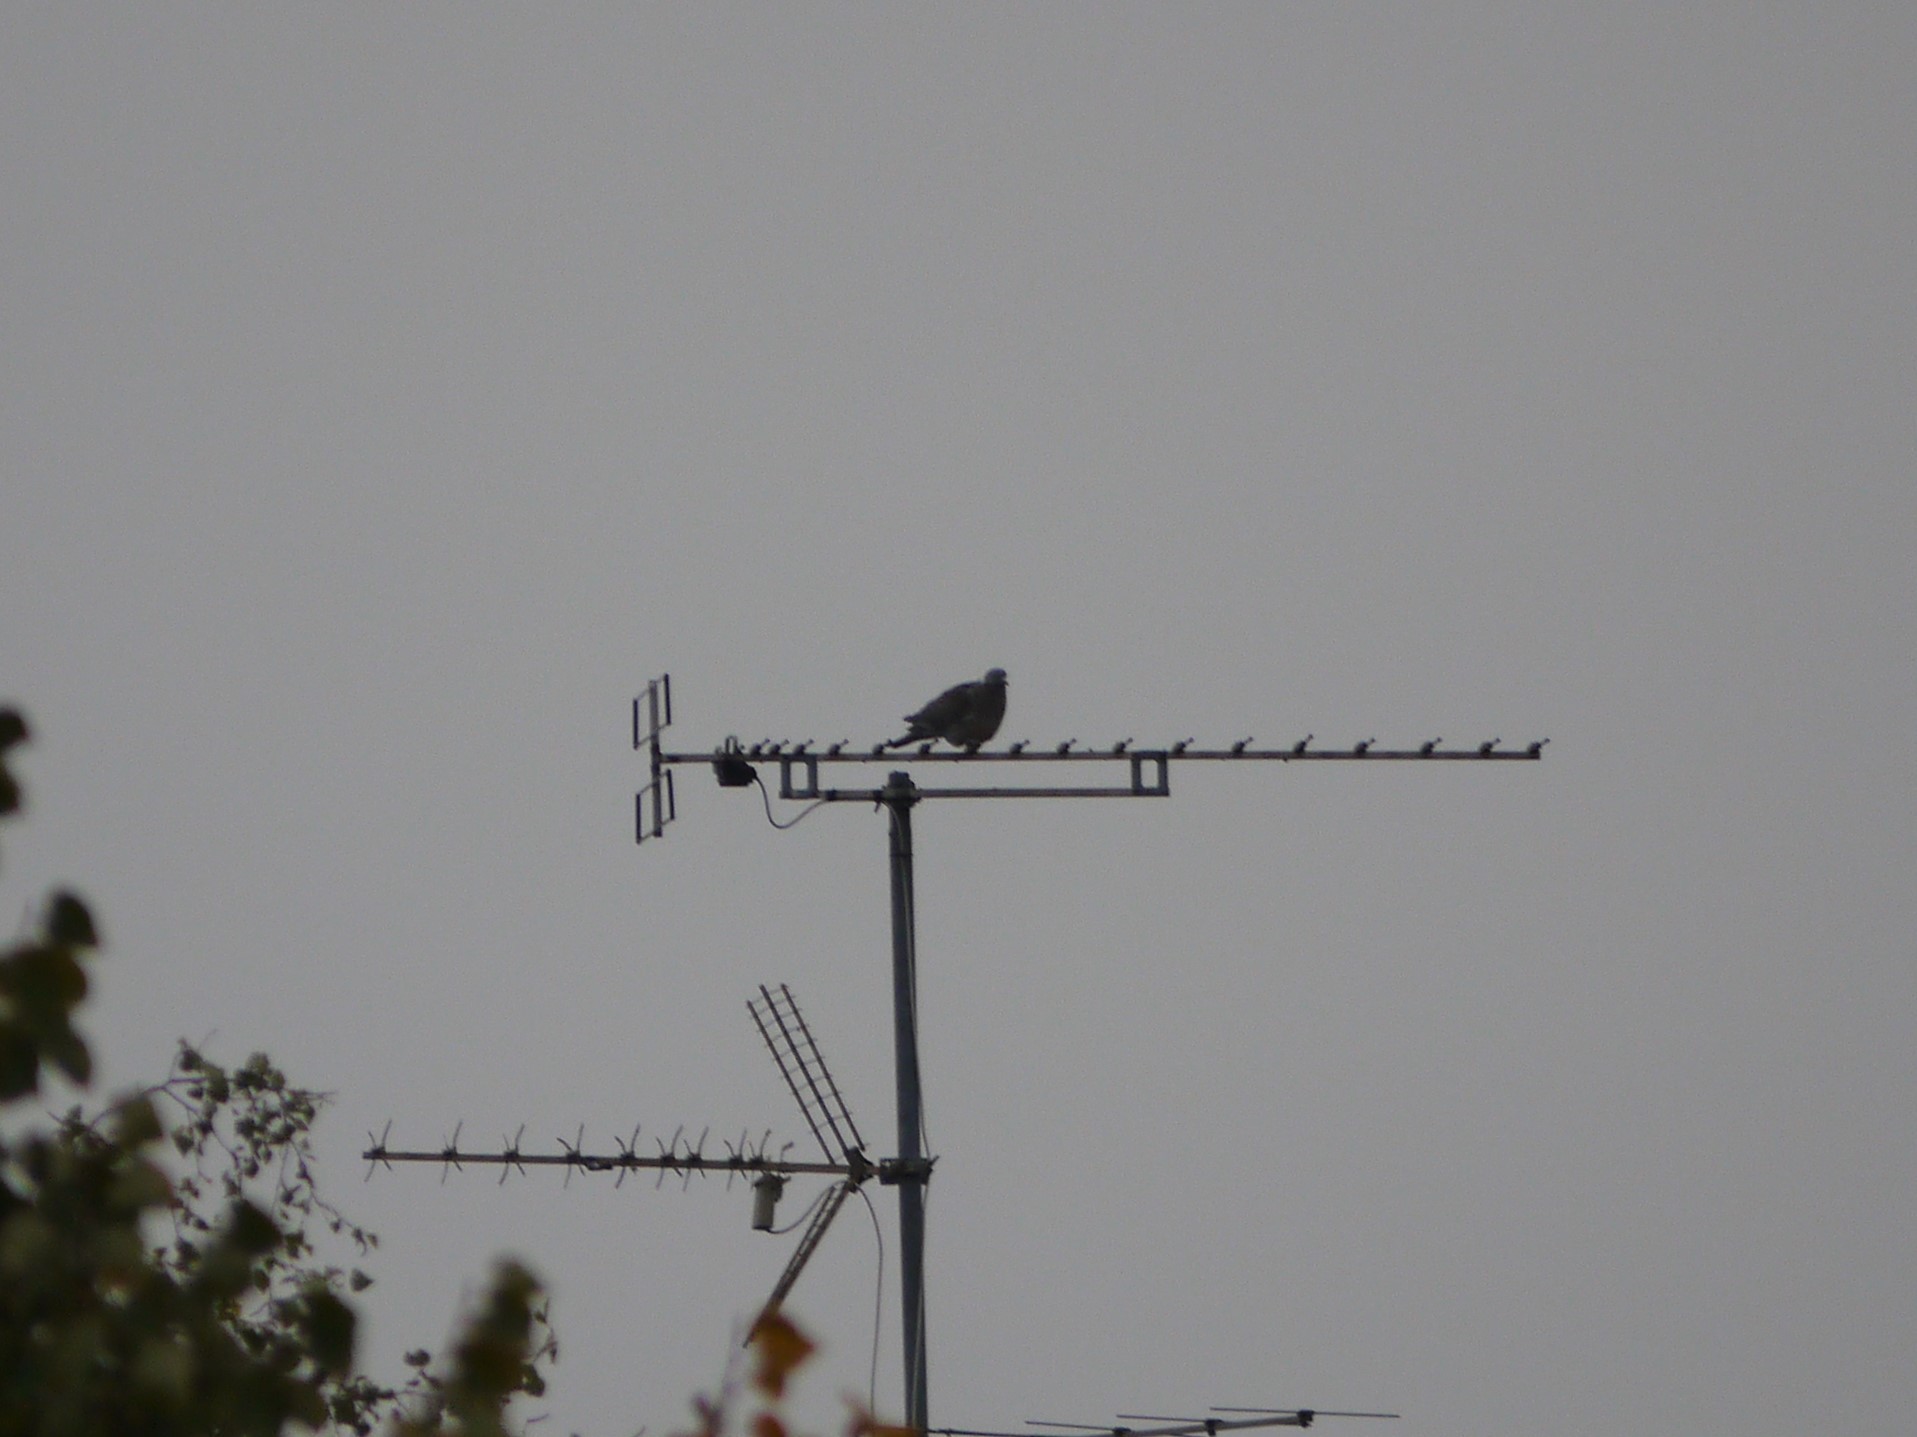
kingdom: Animalia
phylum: Chordata
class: Aves
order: Columbiformes
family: Columbidae
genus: Columba
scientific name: Columba palumbus
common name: Common wood pigeon
